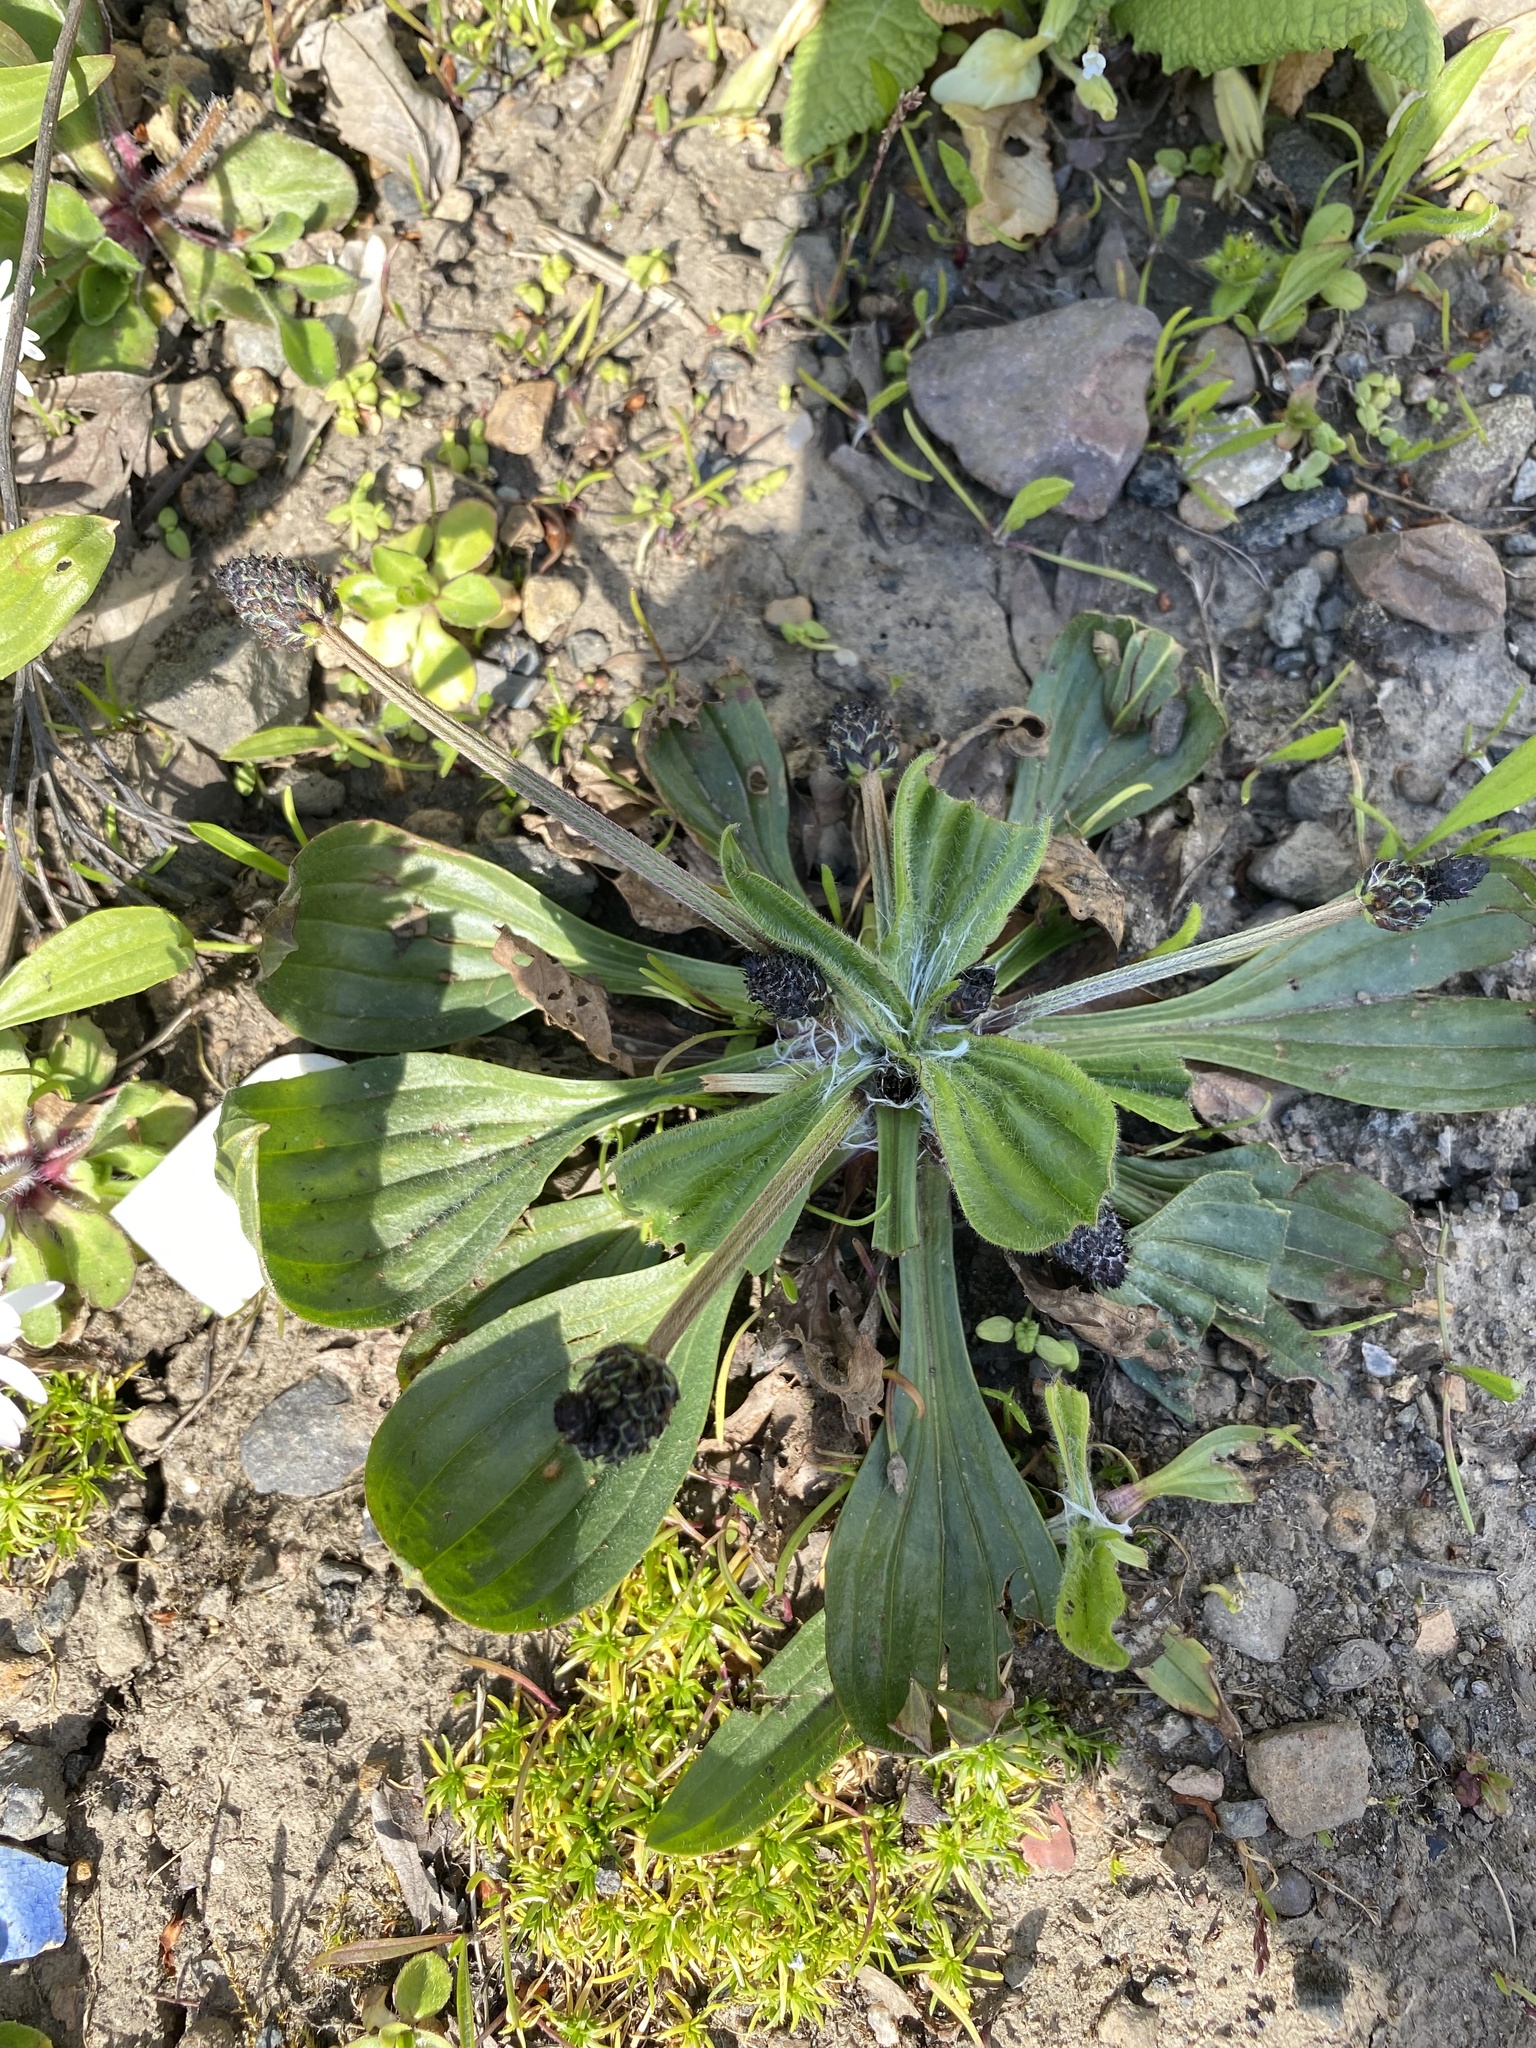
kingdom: Plantae
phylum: Tracheophyta
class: Magnoliopsida
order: Lamiales
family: Plantaginaceae
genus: Plantago
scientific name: Plantago lanceolata
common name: Ribwort plantain
